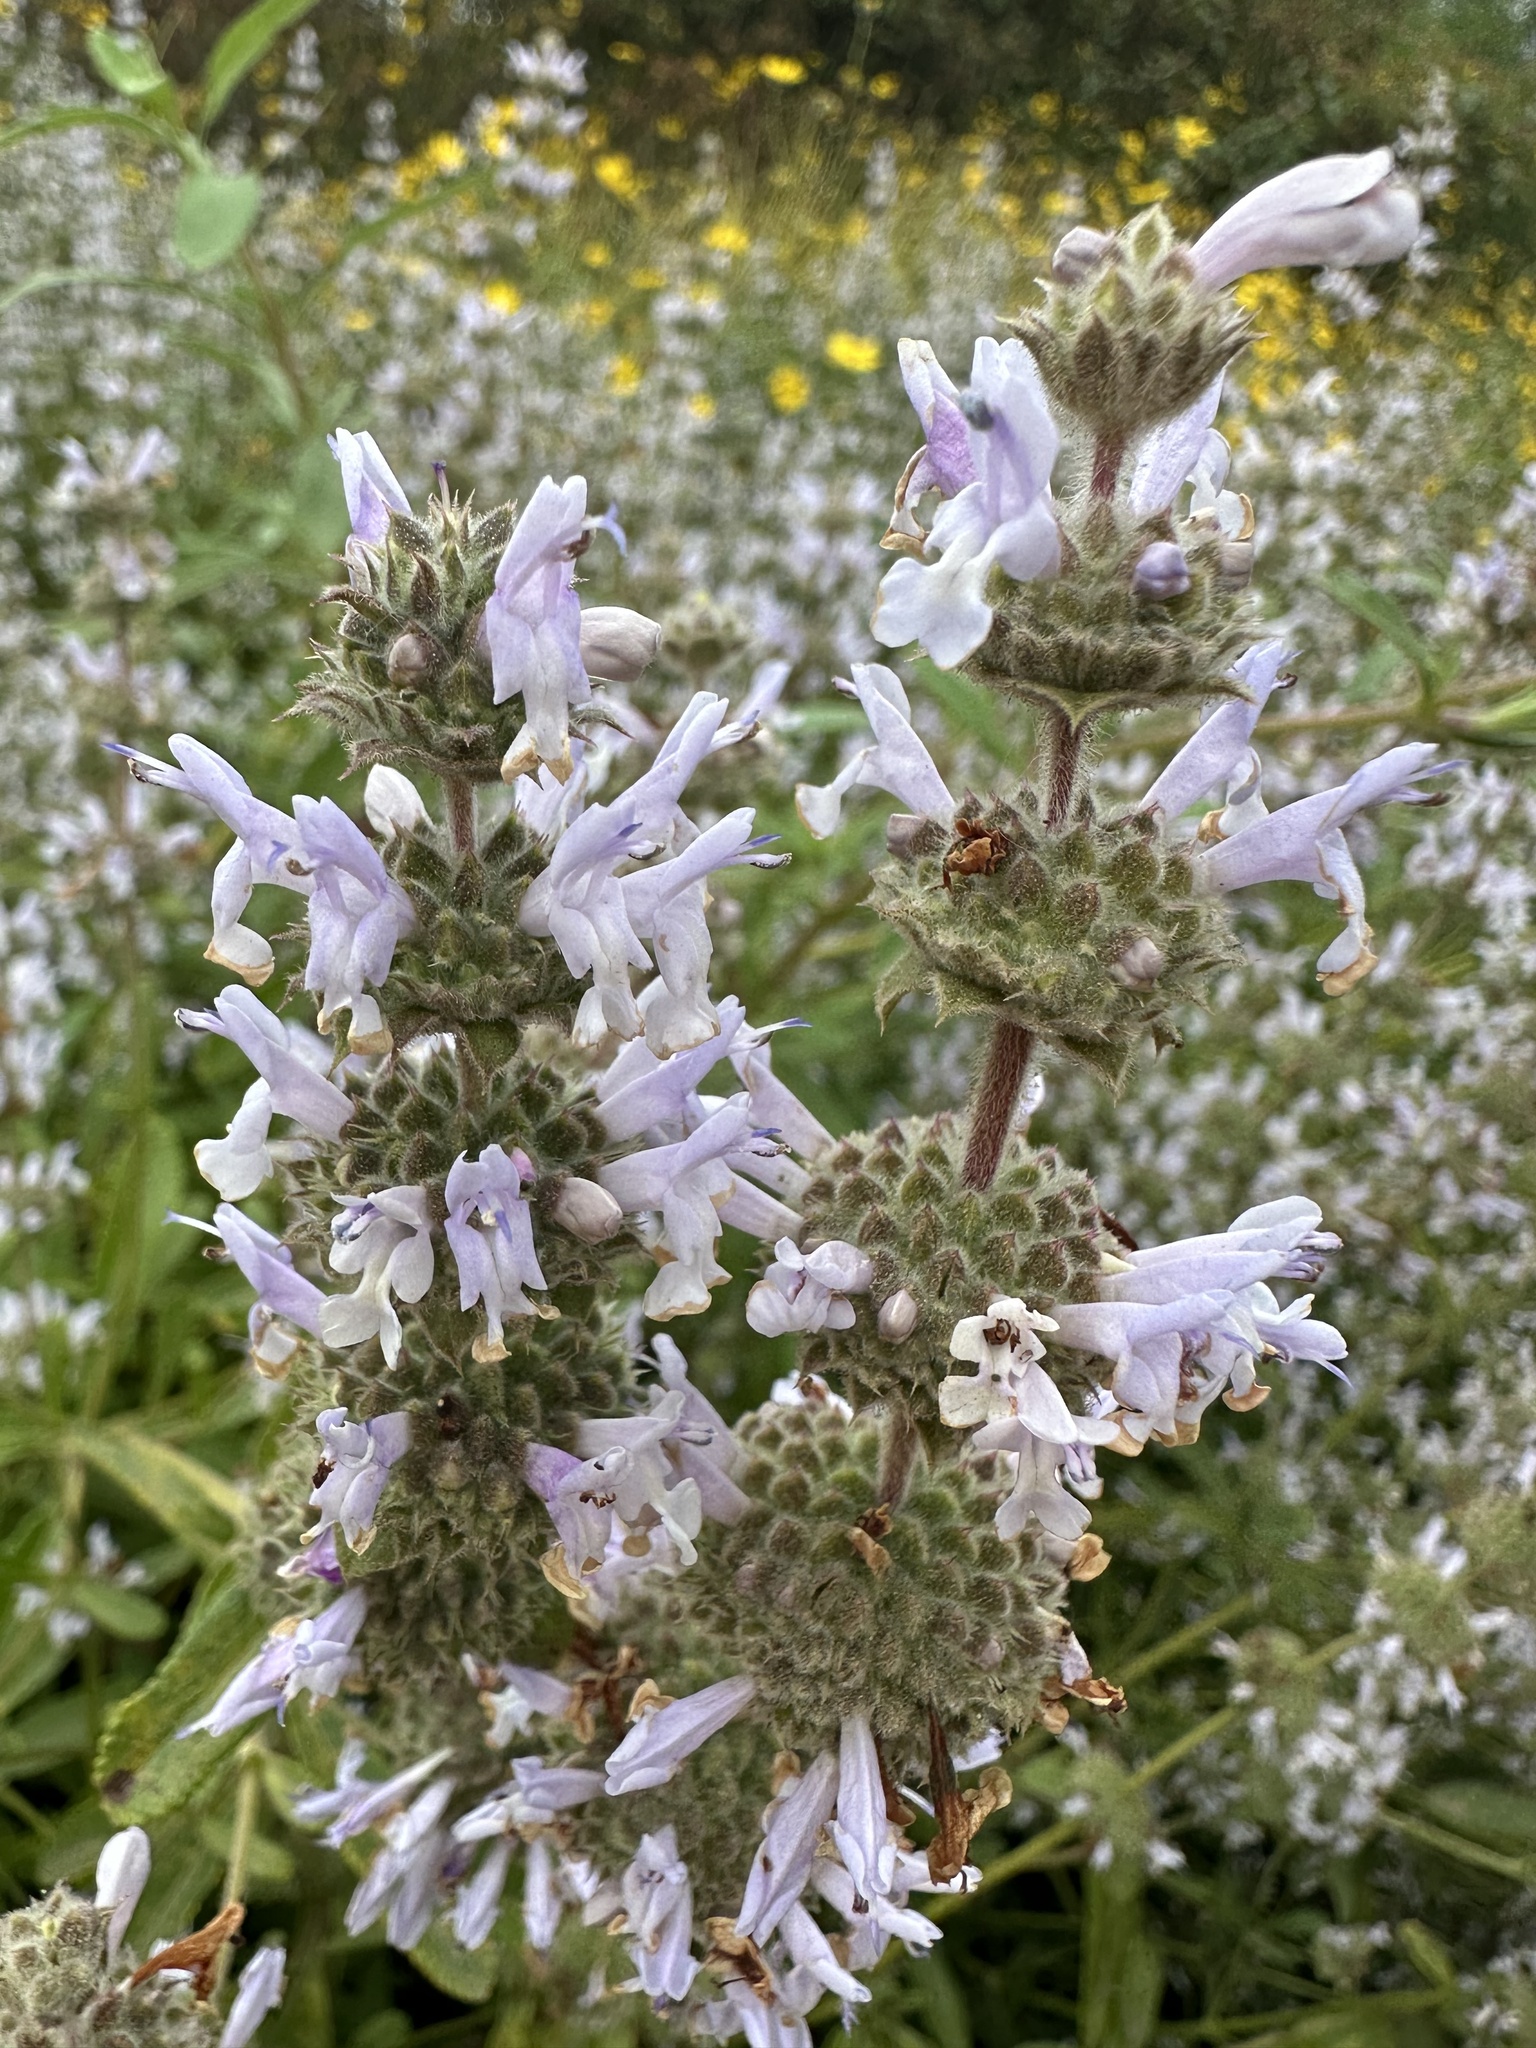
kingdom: Plantae
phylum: Tracheophyta
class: Magnoliopsida
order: Lamiales
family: Lamiaceae
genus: Salvia
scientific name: Salvia mellifera
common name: Black sage
